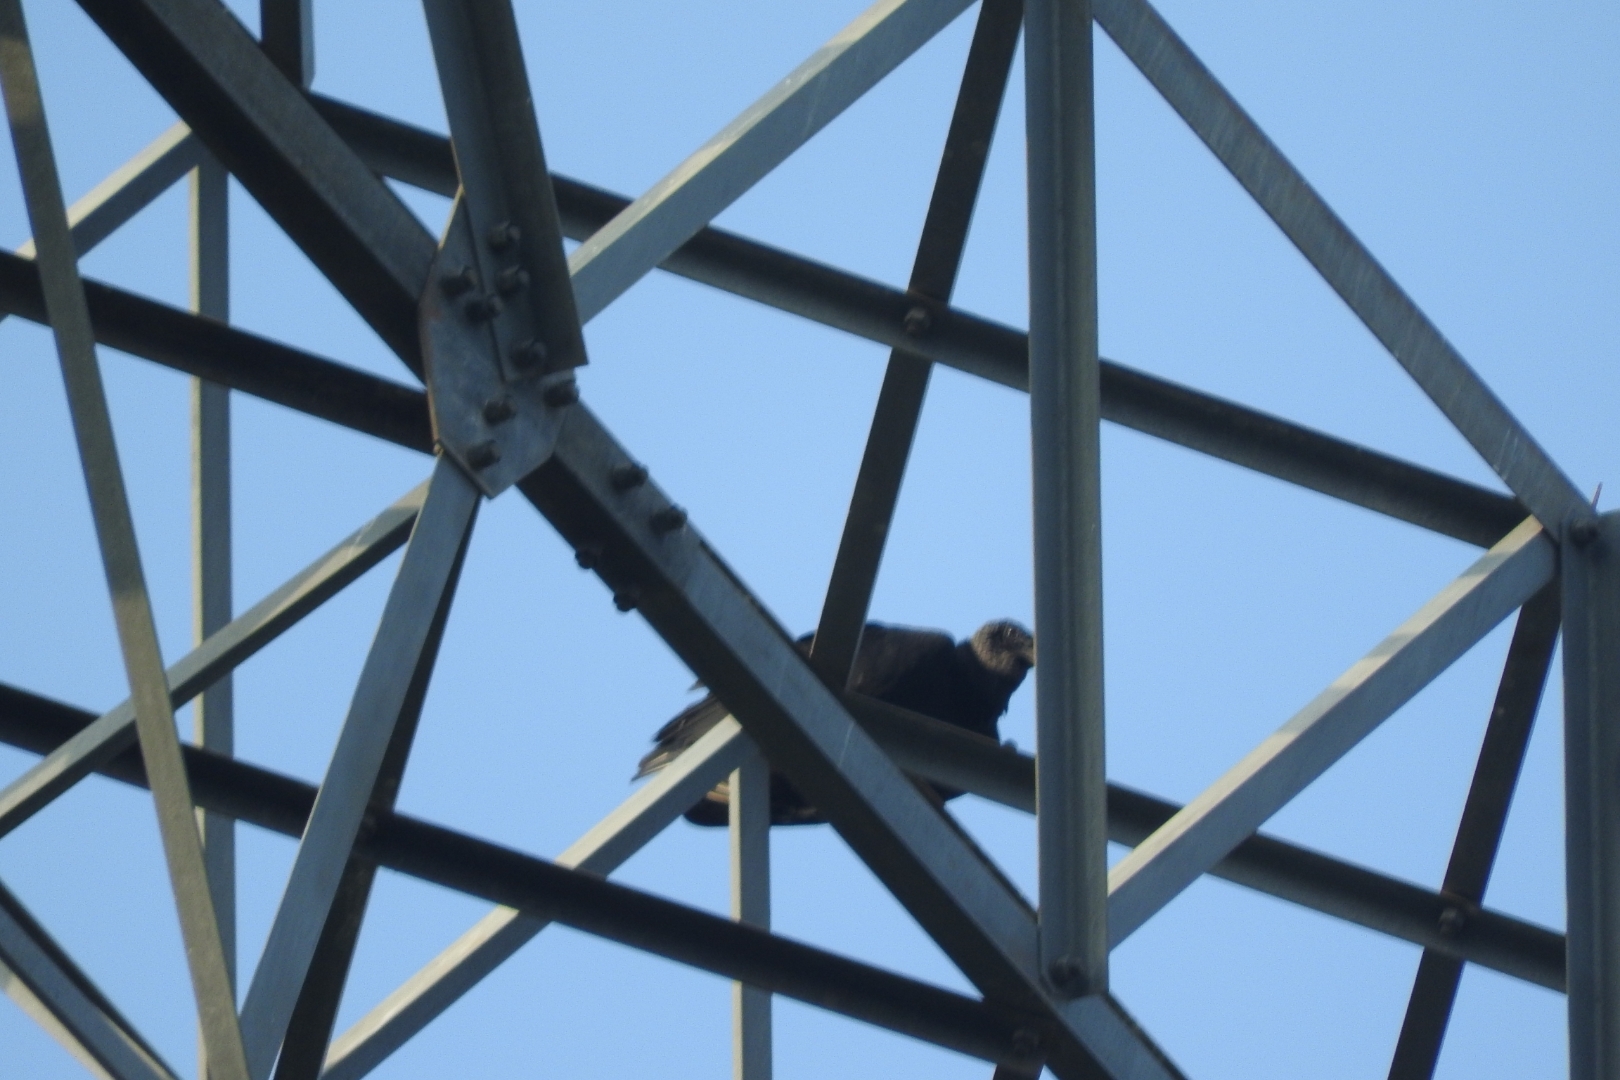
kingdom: Animalia
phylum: Chordata
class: Aves
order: Accipitriformes
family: Cathartidae
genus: Coragyps
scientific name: Coragyps atratus
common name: Black vulture
